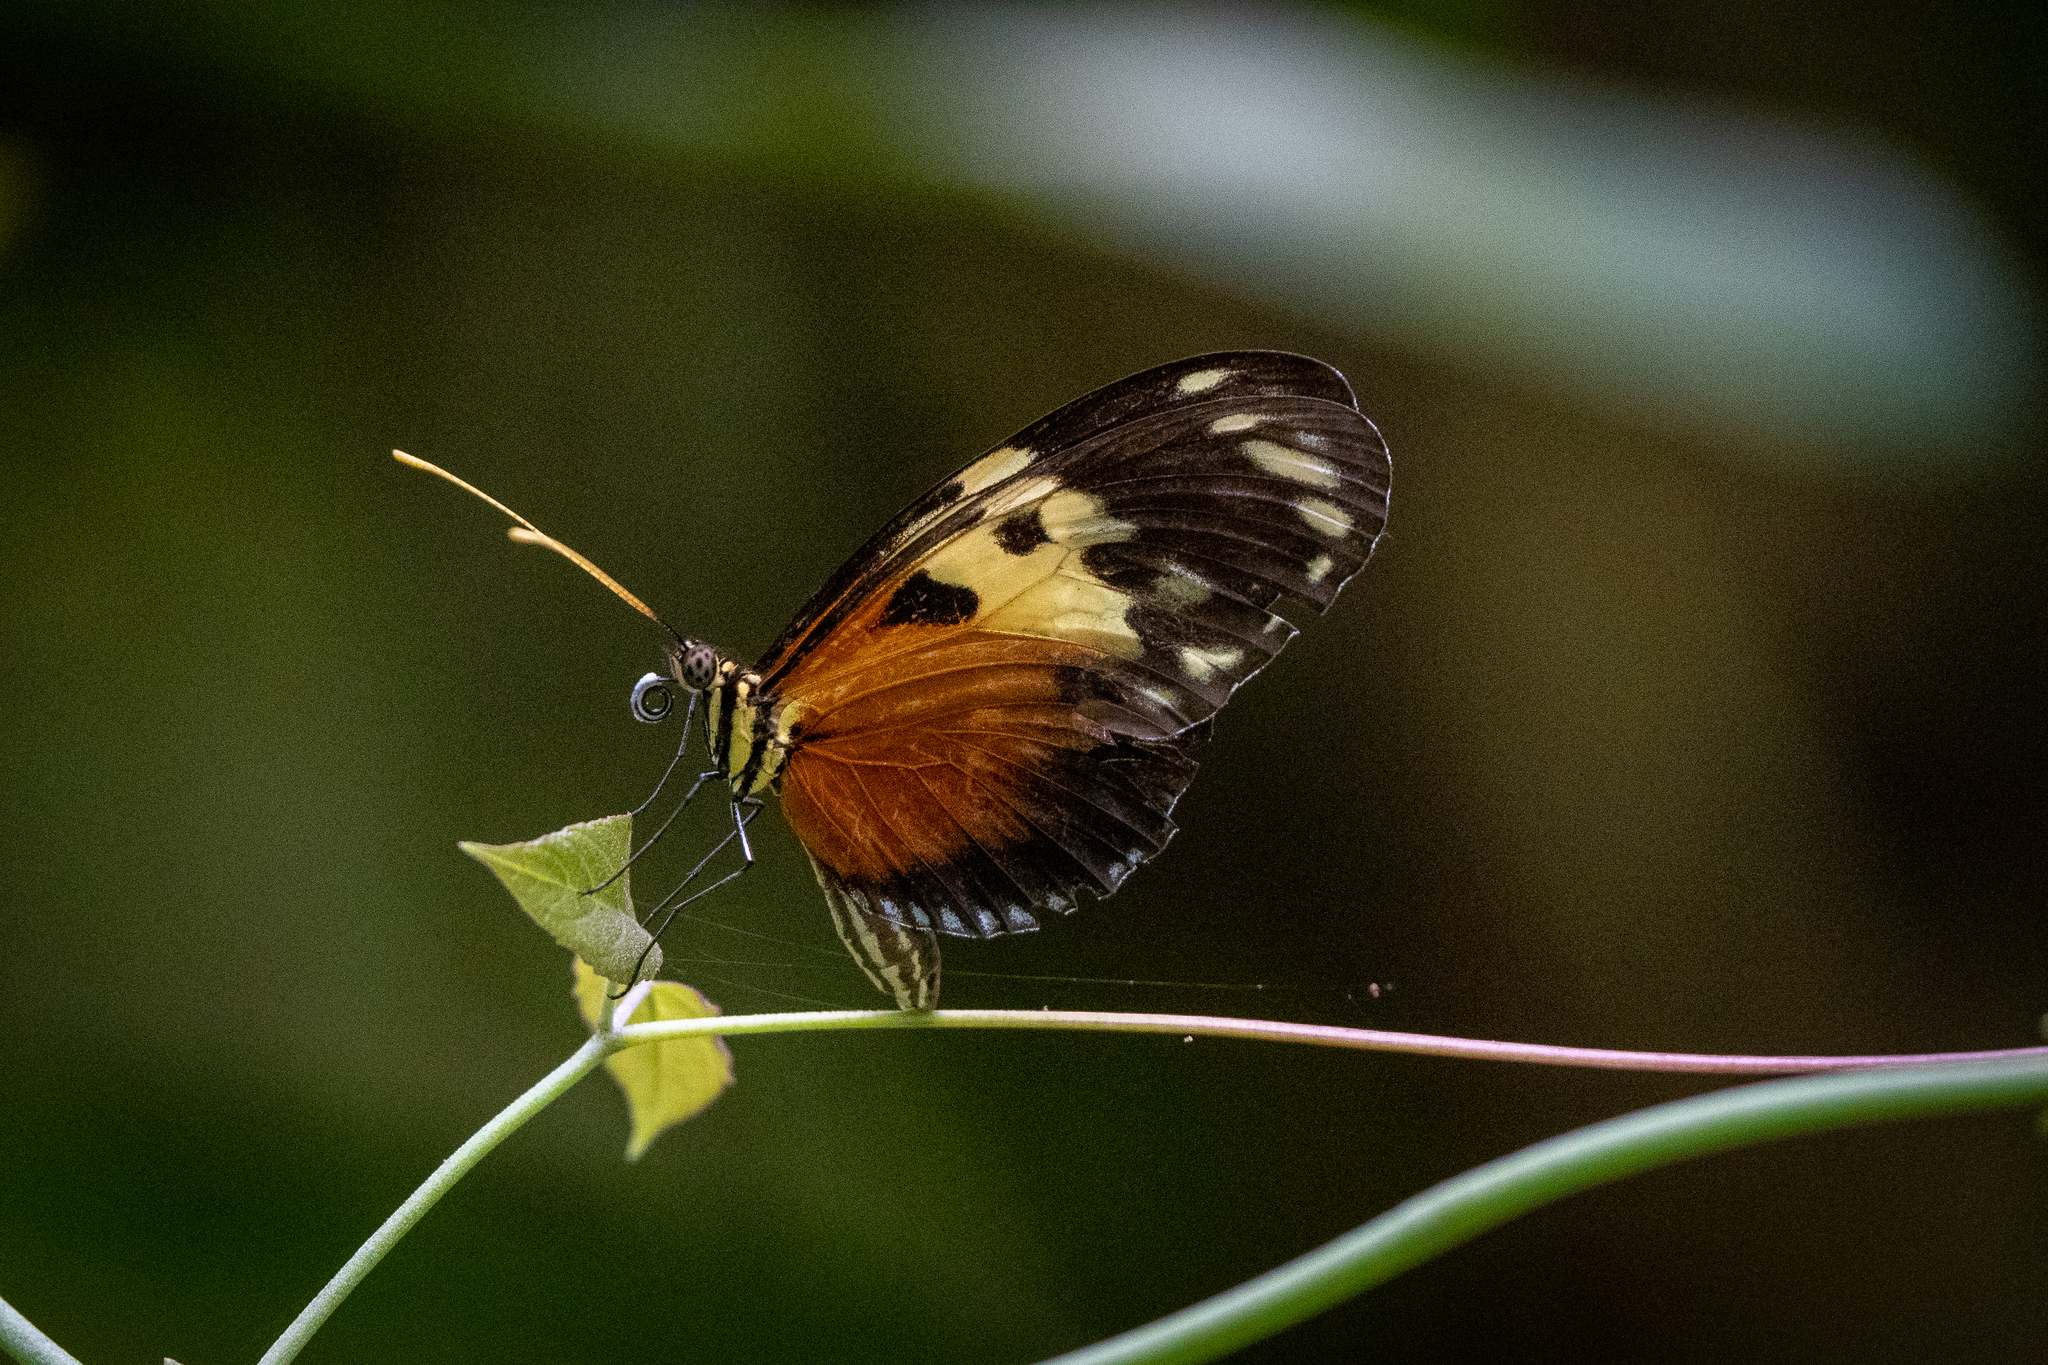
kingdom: Animalia
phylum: Arthropoda
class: Insecta
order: Lepidoptera
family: Nymphalidae
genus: Heliconius
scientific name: Heliconius hecale
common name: Tiger longwing
